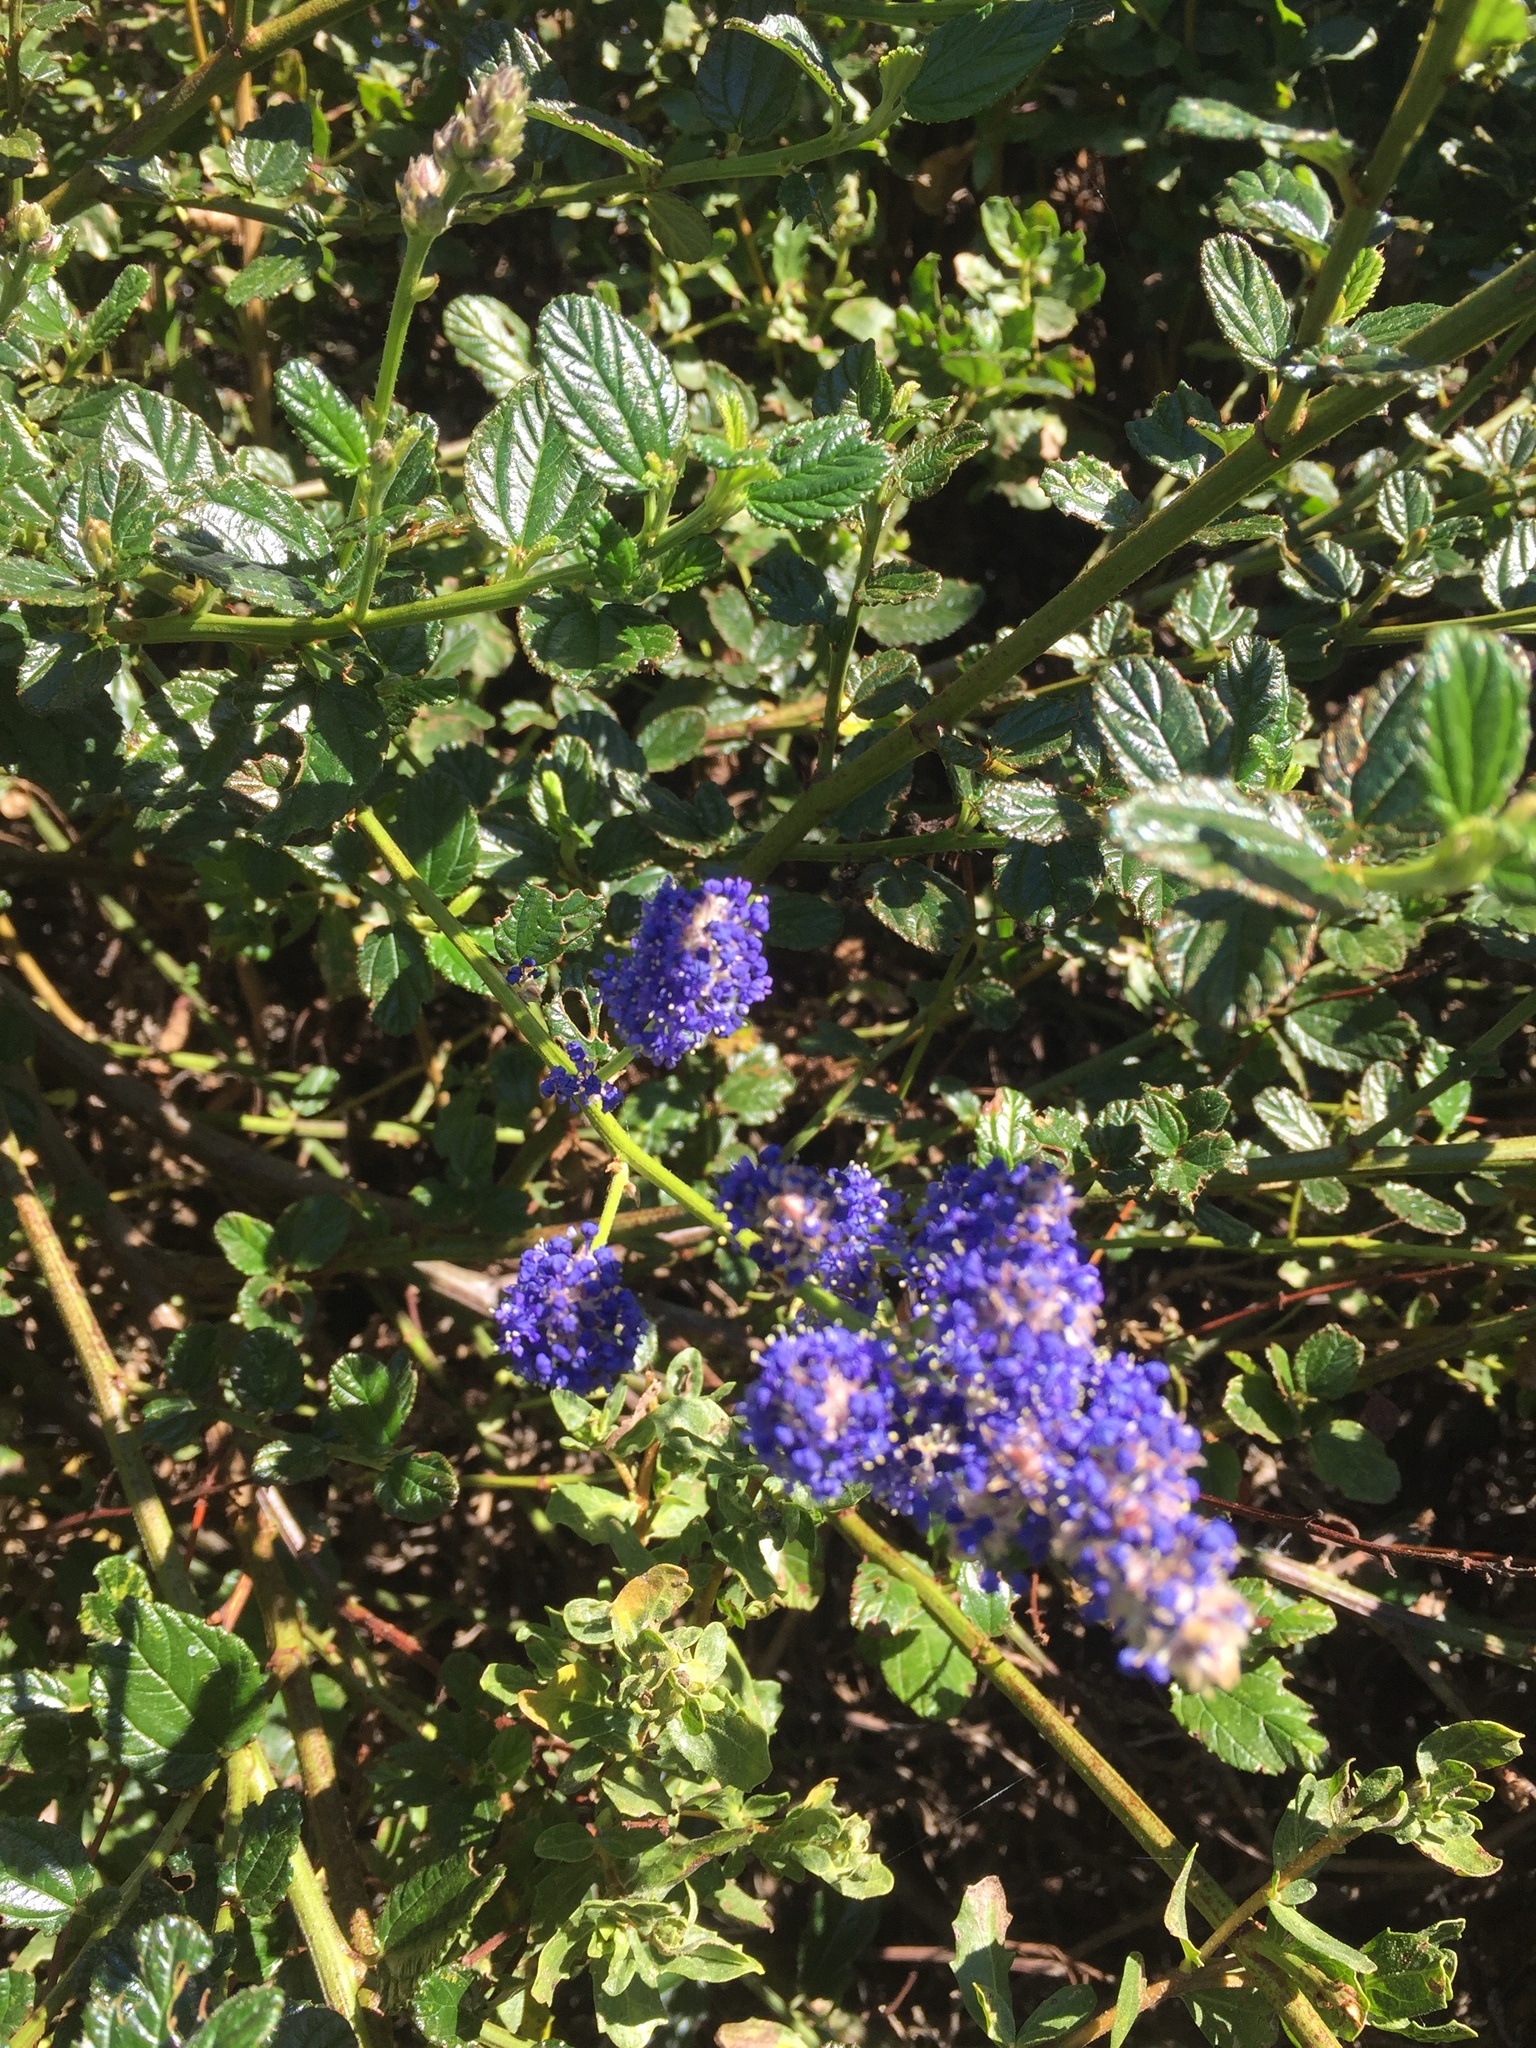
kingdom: Plantae
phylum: Tracheophyta
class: Magnoliopsida
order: Rosales
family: Rhamnaceae
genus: Ceanothus
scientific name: Ceanothus thyrsiflorus
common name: California-lilac
